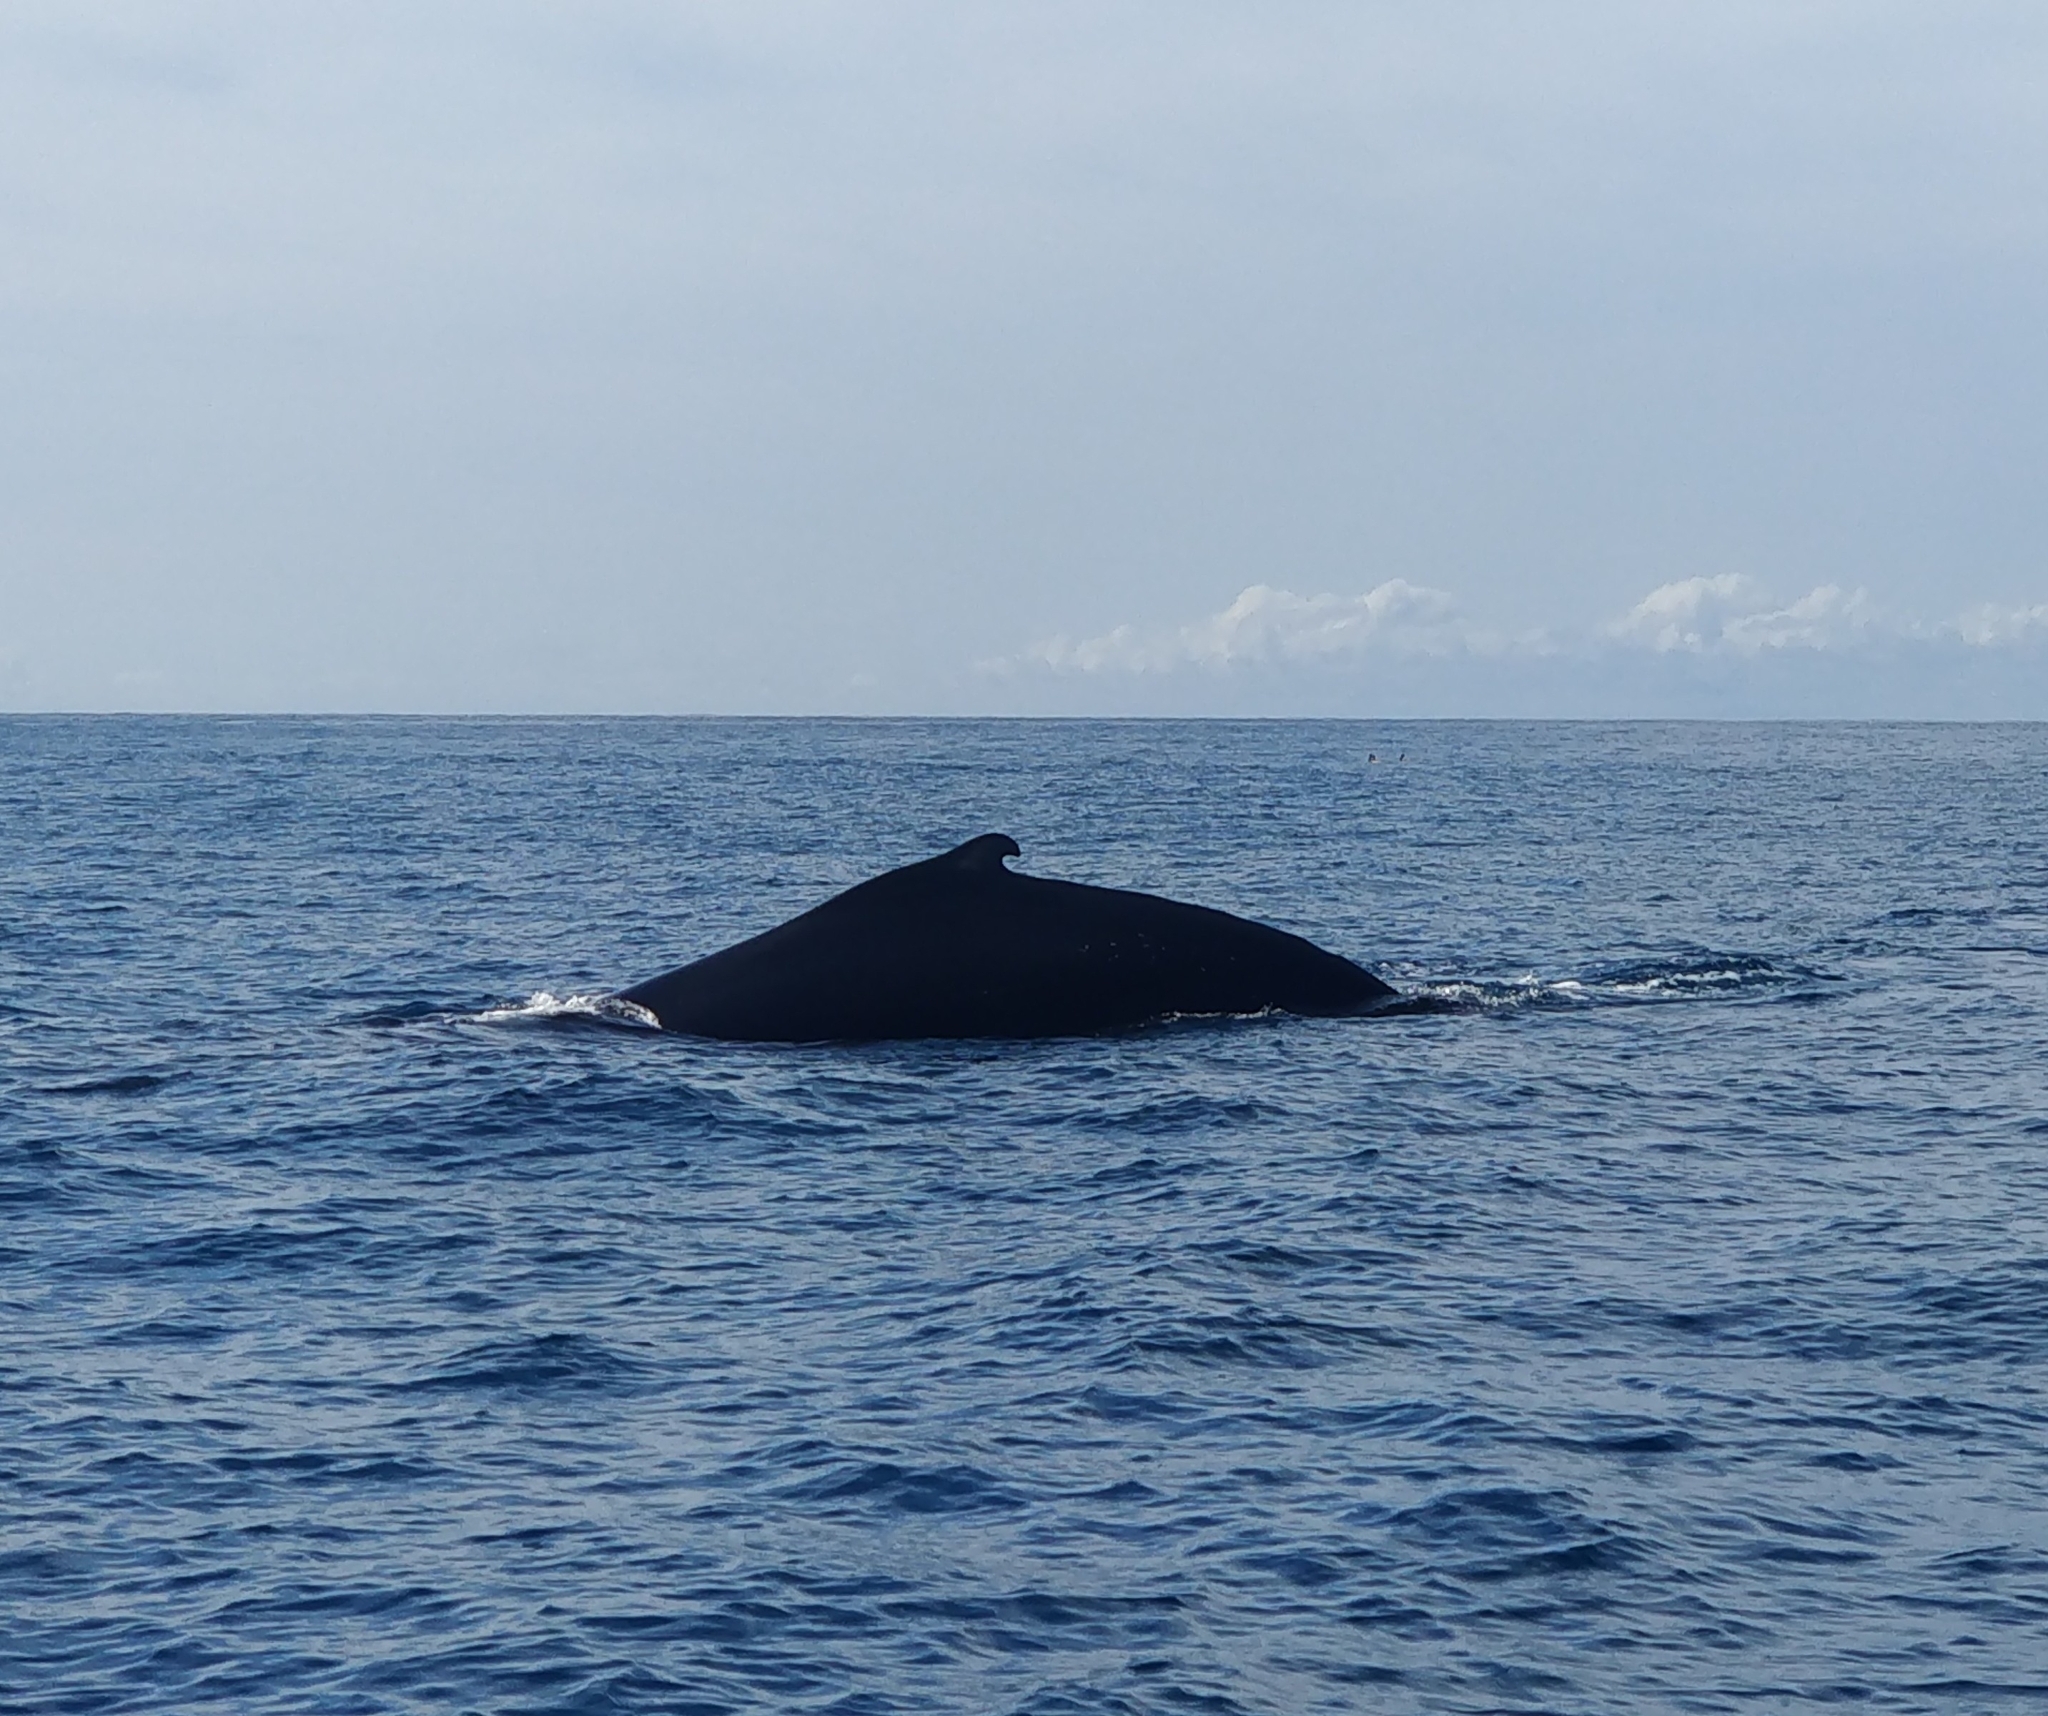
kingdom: Animalia
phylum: Chordata
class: Mammalia
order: Cetacea
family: Balaenopteridae
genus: Megaptera
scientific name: Megaptera novaeangliae
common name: Humpback whale
